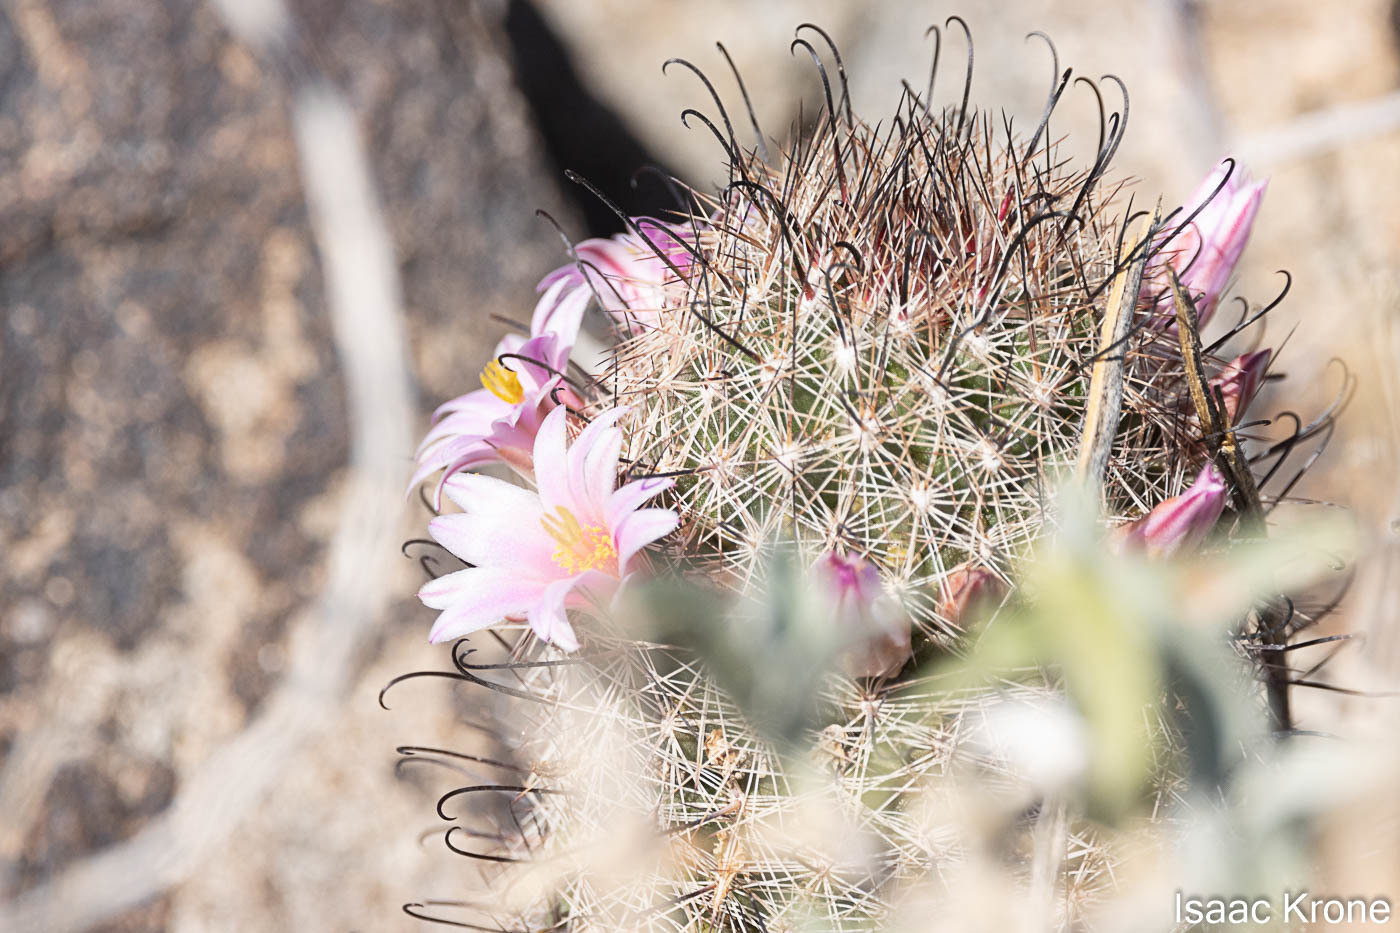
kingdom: Plantae
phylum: Tracheophyta
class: Magnoliopsida
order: Caryophyllales
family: Cactaceae
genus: Cochemiea
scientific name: Cochemiea grahamii
